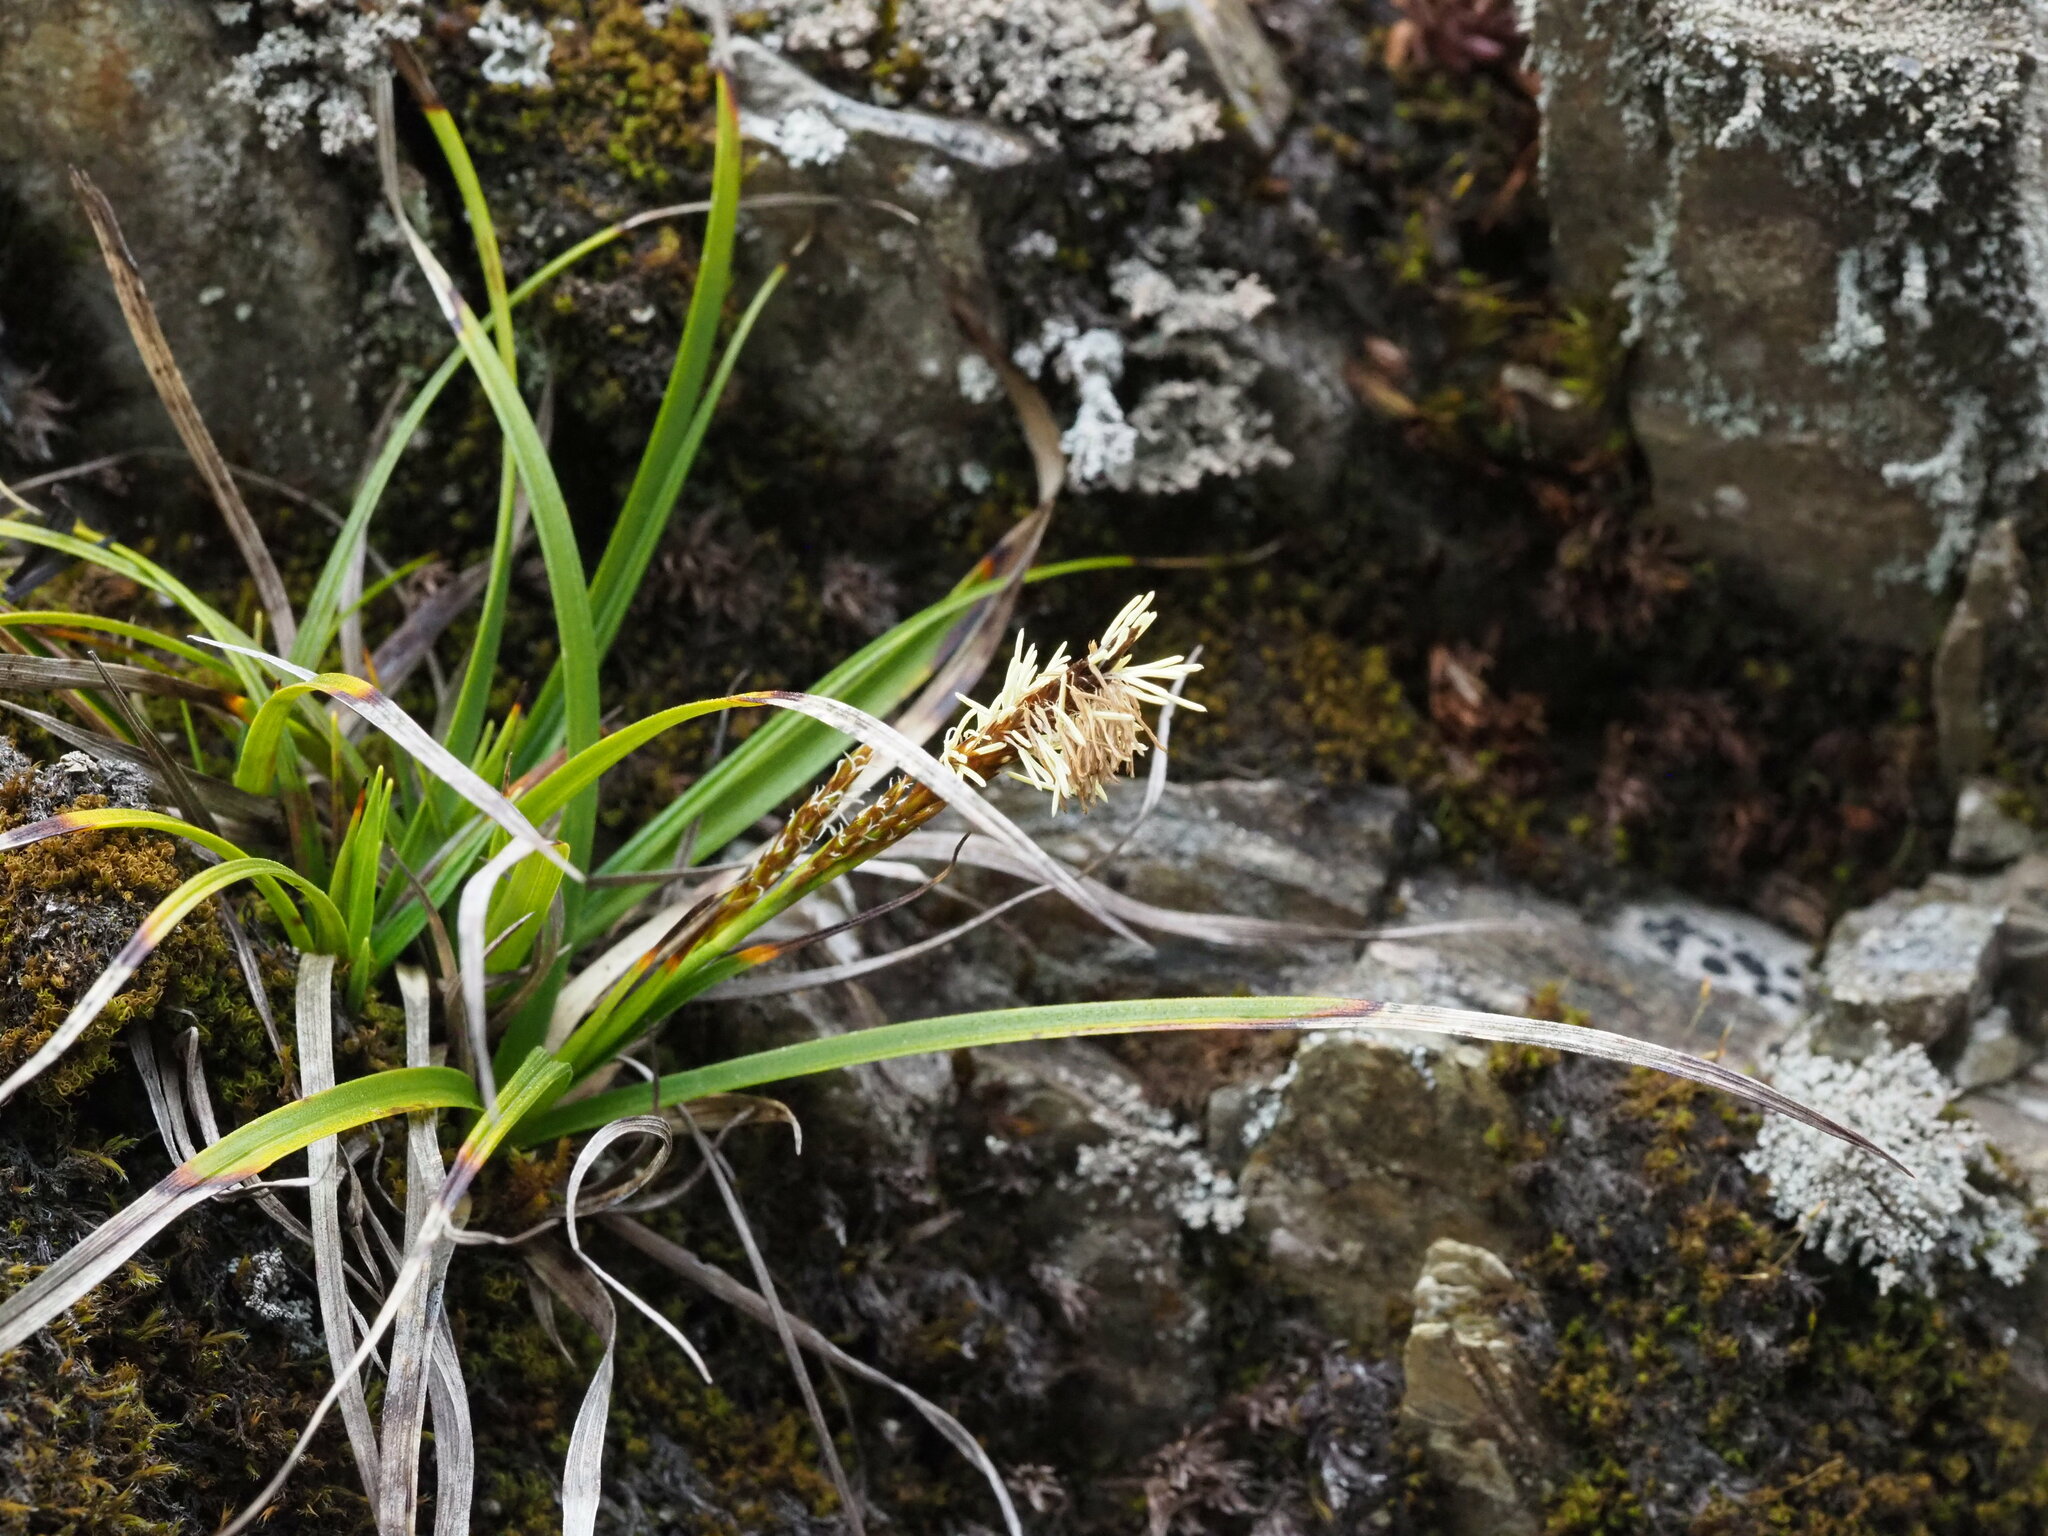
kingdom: Plantae
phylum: Tracheophyta
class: Liliopsida
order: Poales
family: Cyperaceae
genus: Carex
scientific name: Carex chrysolepis
